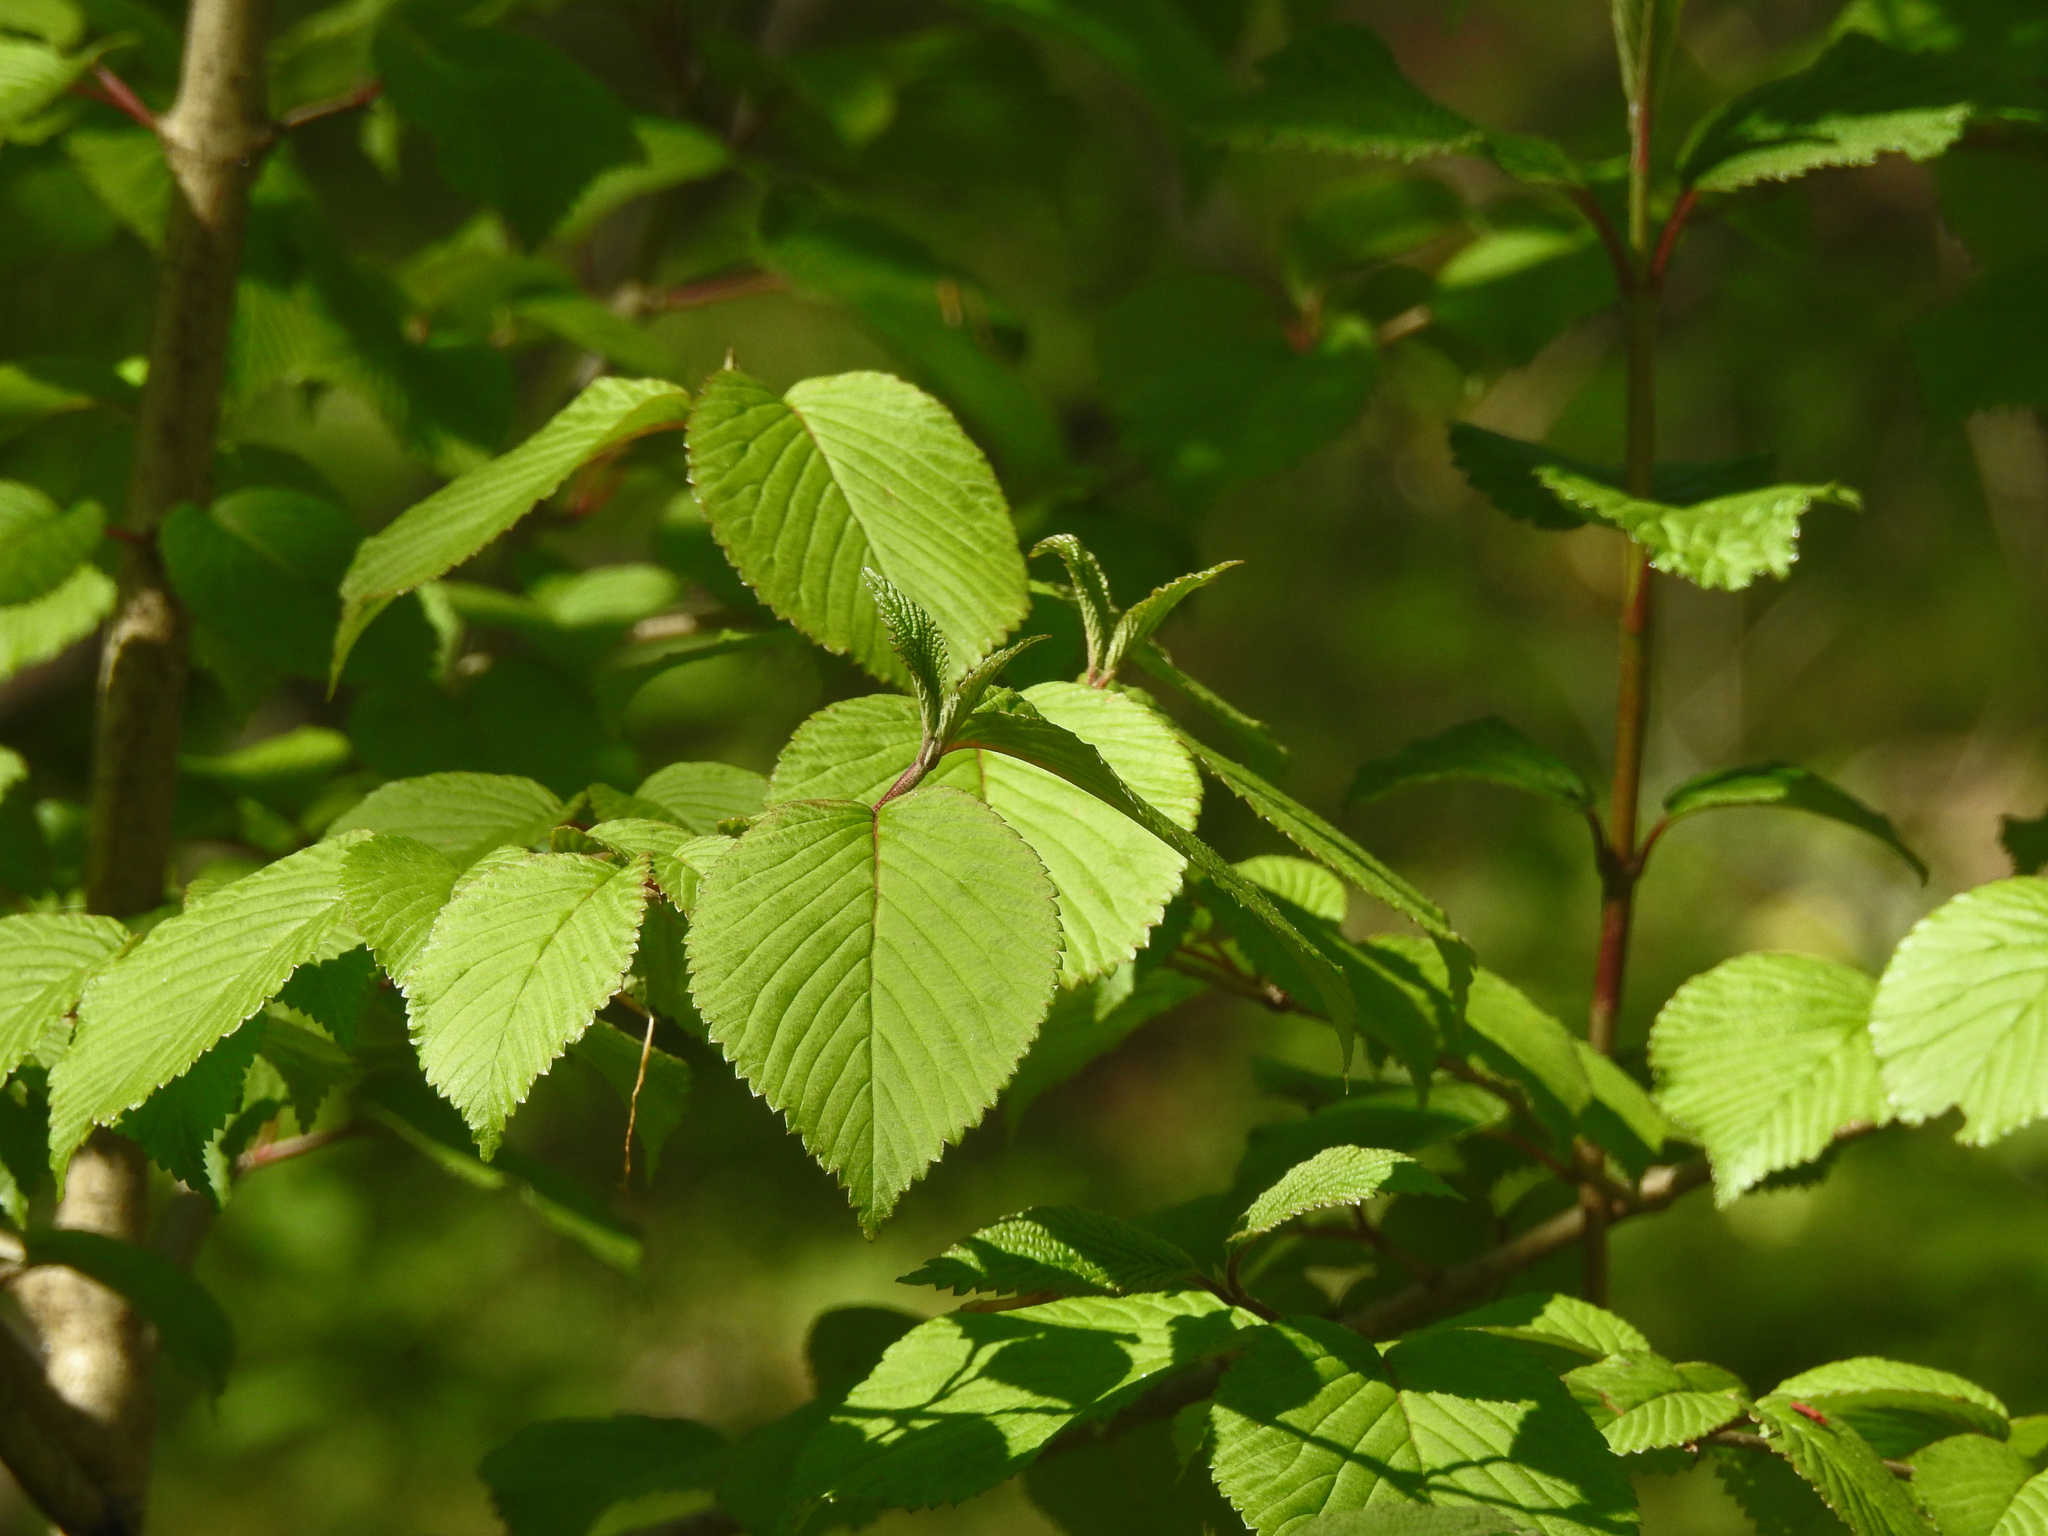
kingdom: Plantae
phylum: Tracheophyta
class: Magnoliopsida
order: Dipsacales
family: Viburnaceae
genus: Viburnum
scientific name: Viburnum plicatum
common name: Japanese snowball
